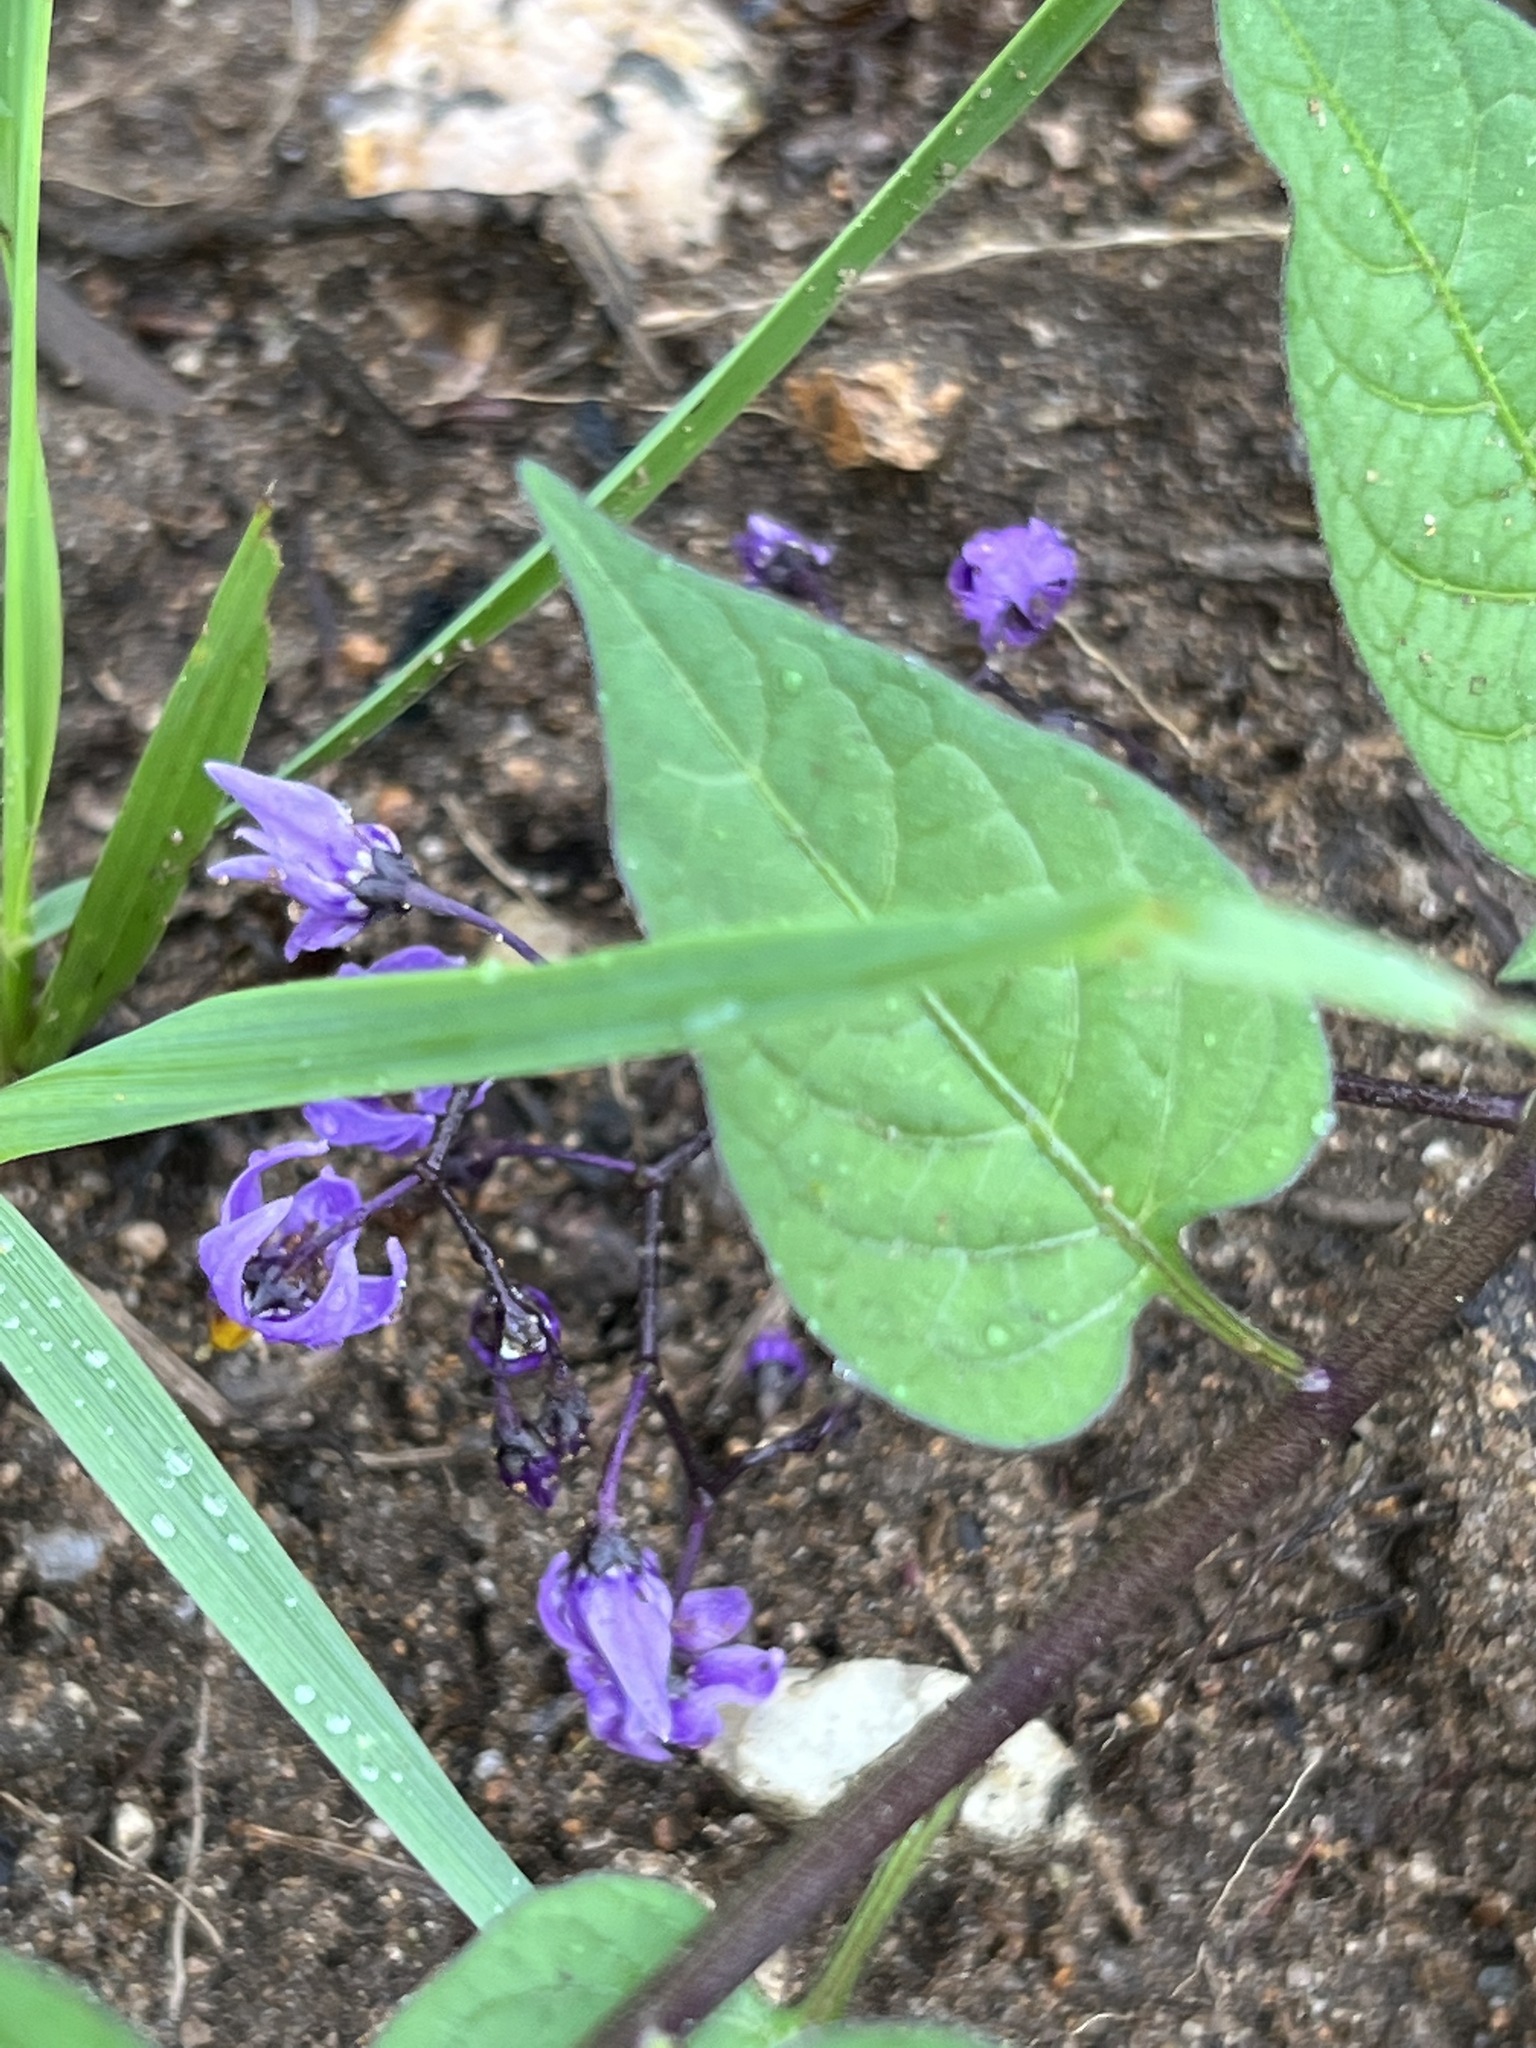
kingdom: Plantae
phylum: Tracheophyta
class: Magnoliopsida
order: Solanales
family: Solanaceae
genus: Solanum
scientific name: Solanum dulcamara
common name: Climbing nightshade
